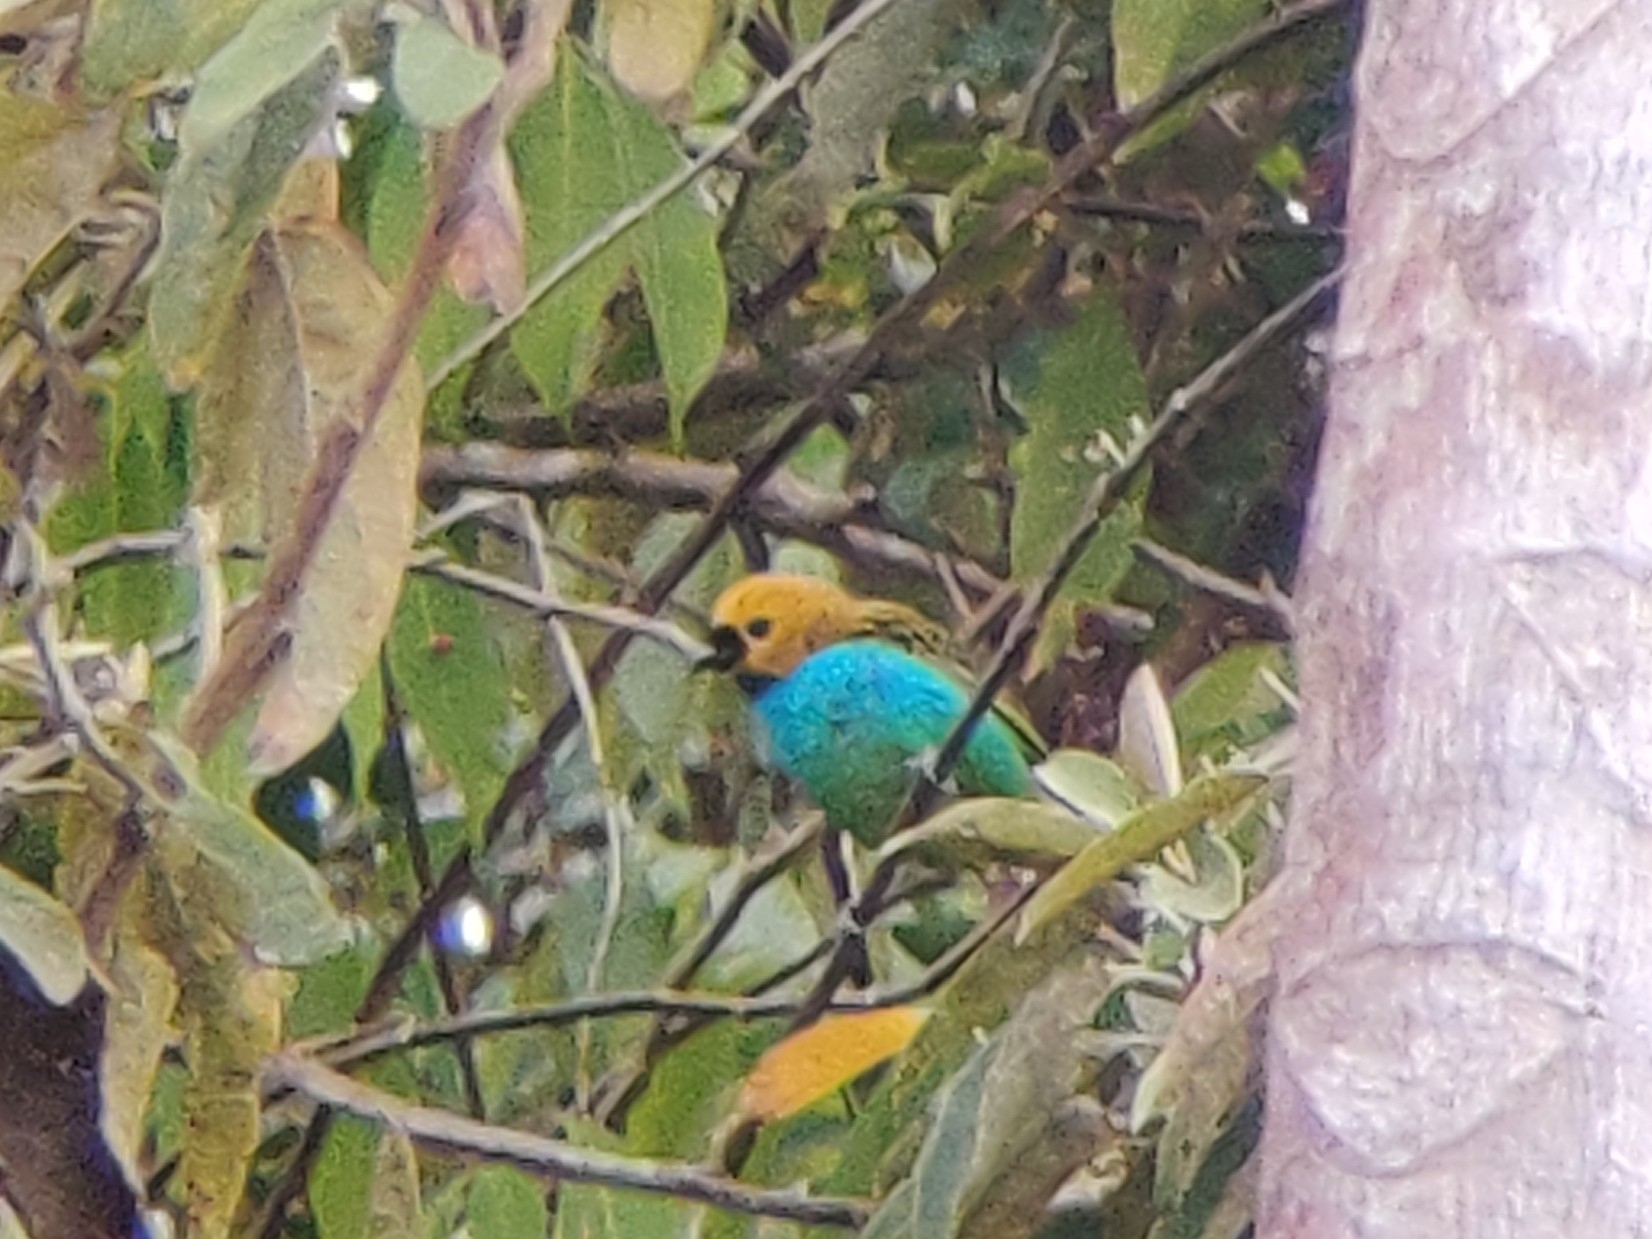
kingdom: Animalia
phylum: Chordata
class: Aves
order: Passeriformes
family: Thraupidae
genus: Tangara
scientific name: Tangara cyanoventris
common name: Gilt-edged tanager
